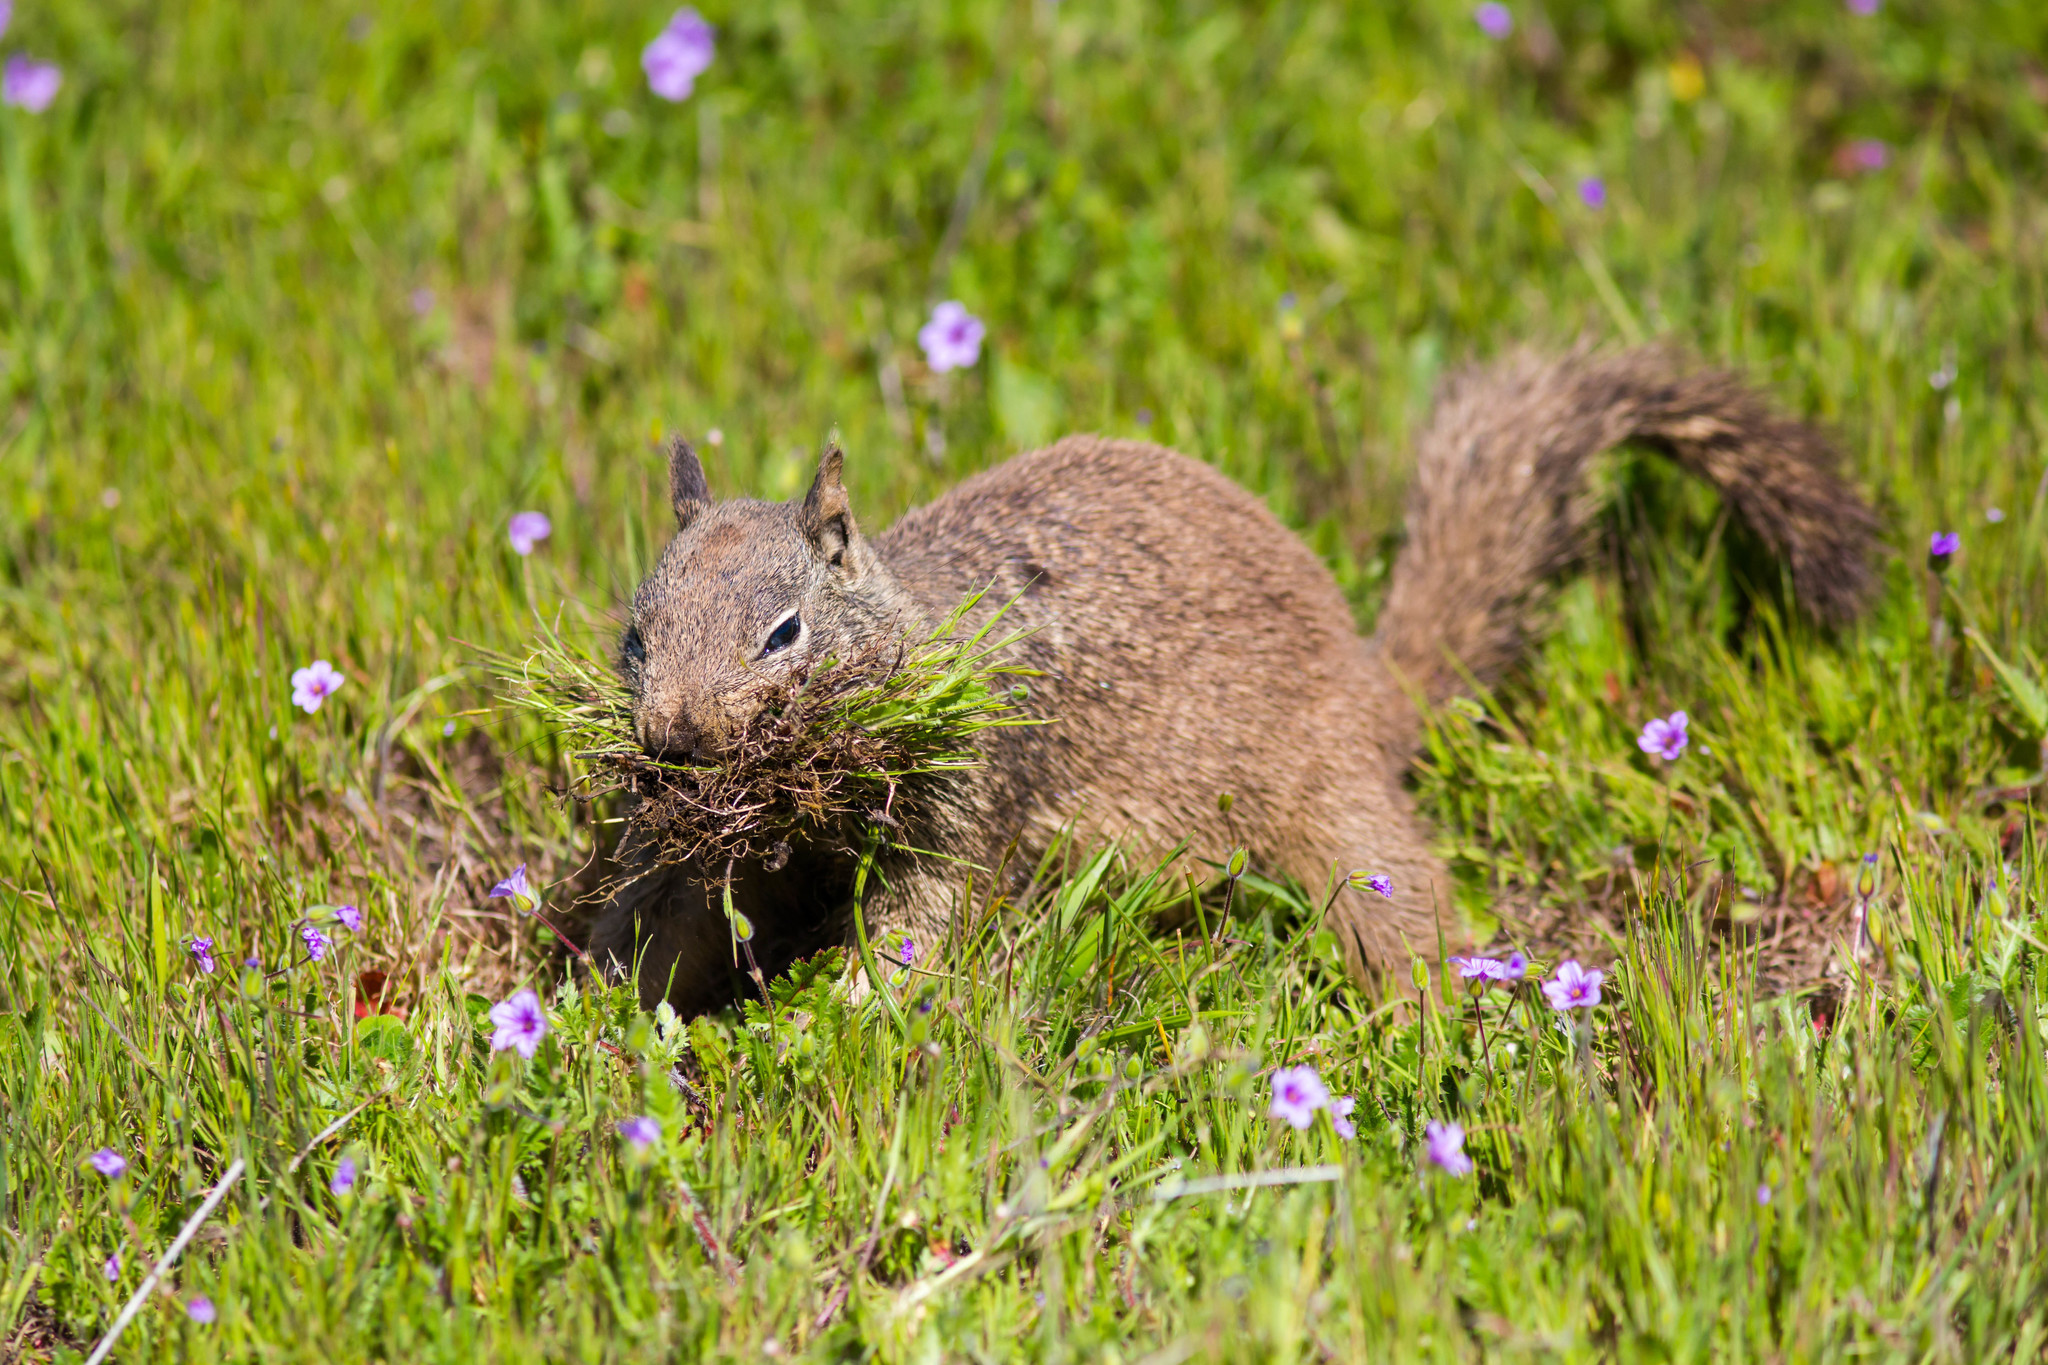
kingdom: Animalia
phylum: Chordata
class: Mammalia
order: Rodentia
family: Sciuridae
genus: Otospermophilus
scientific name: Otospermophilus beecheyi
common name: California ground squirrel
